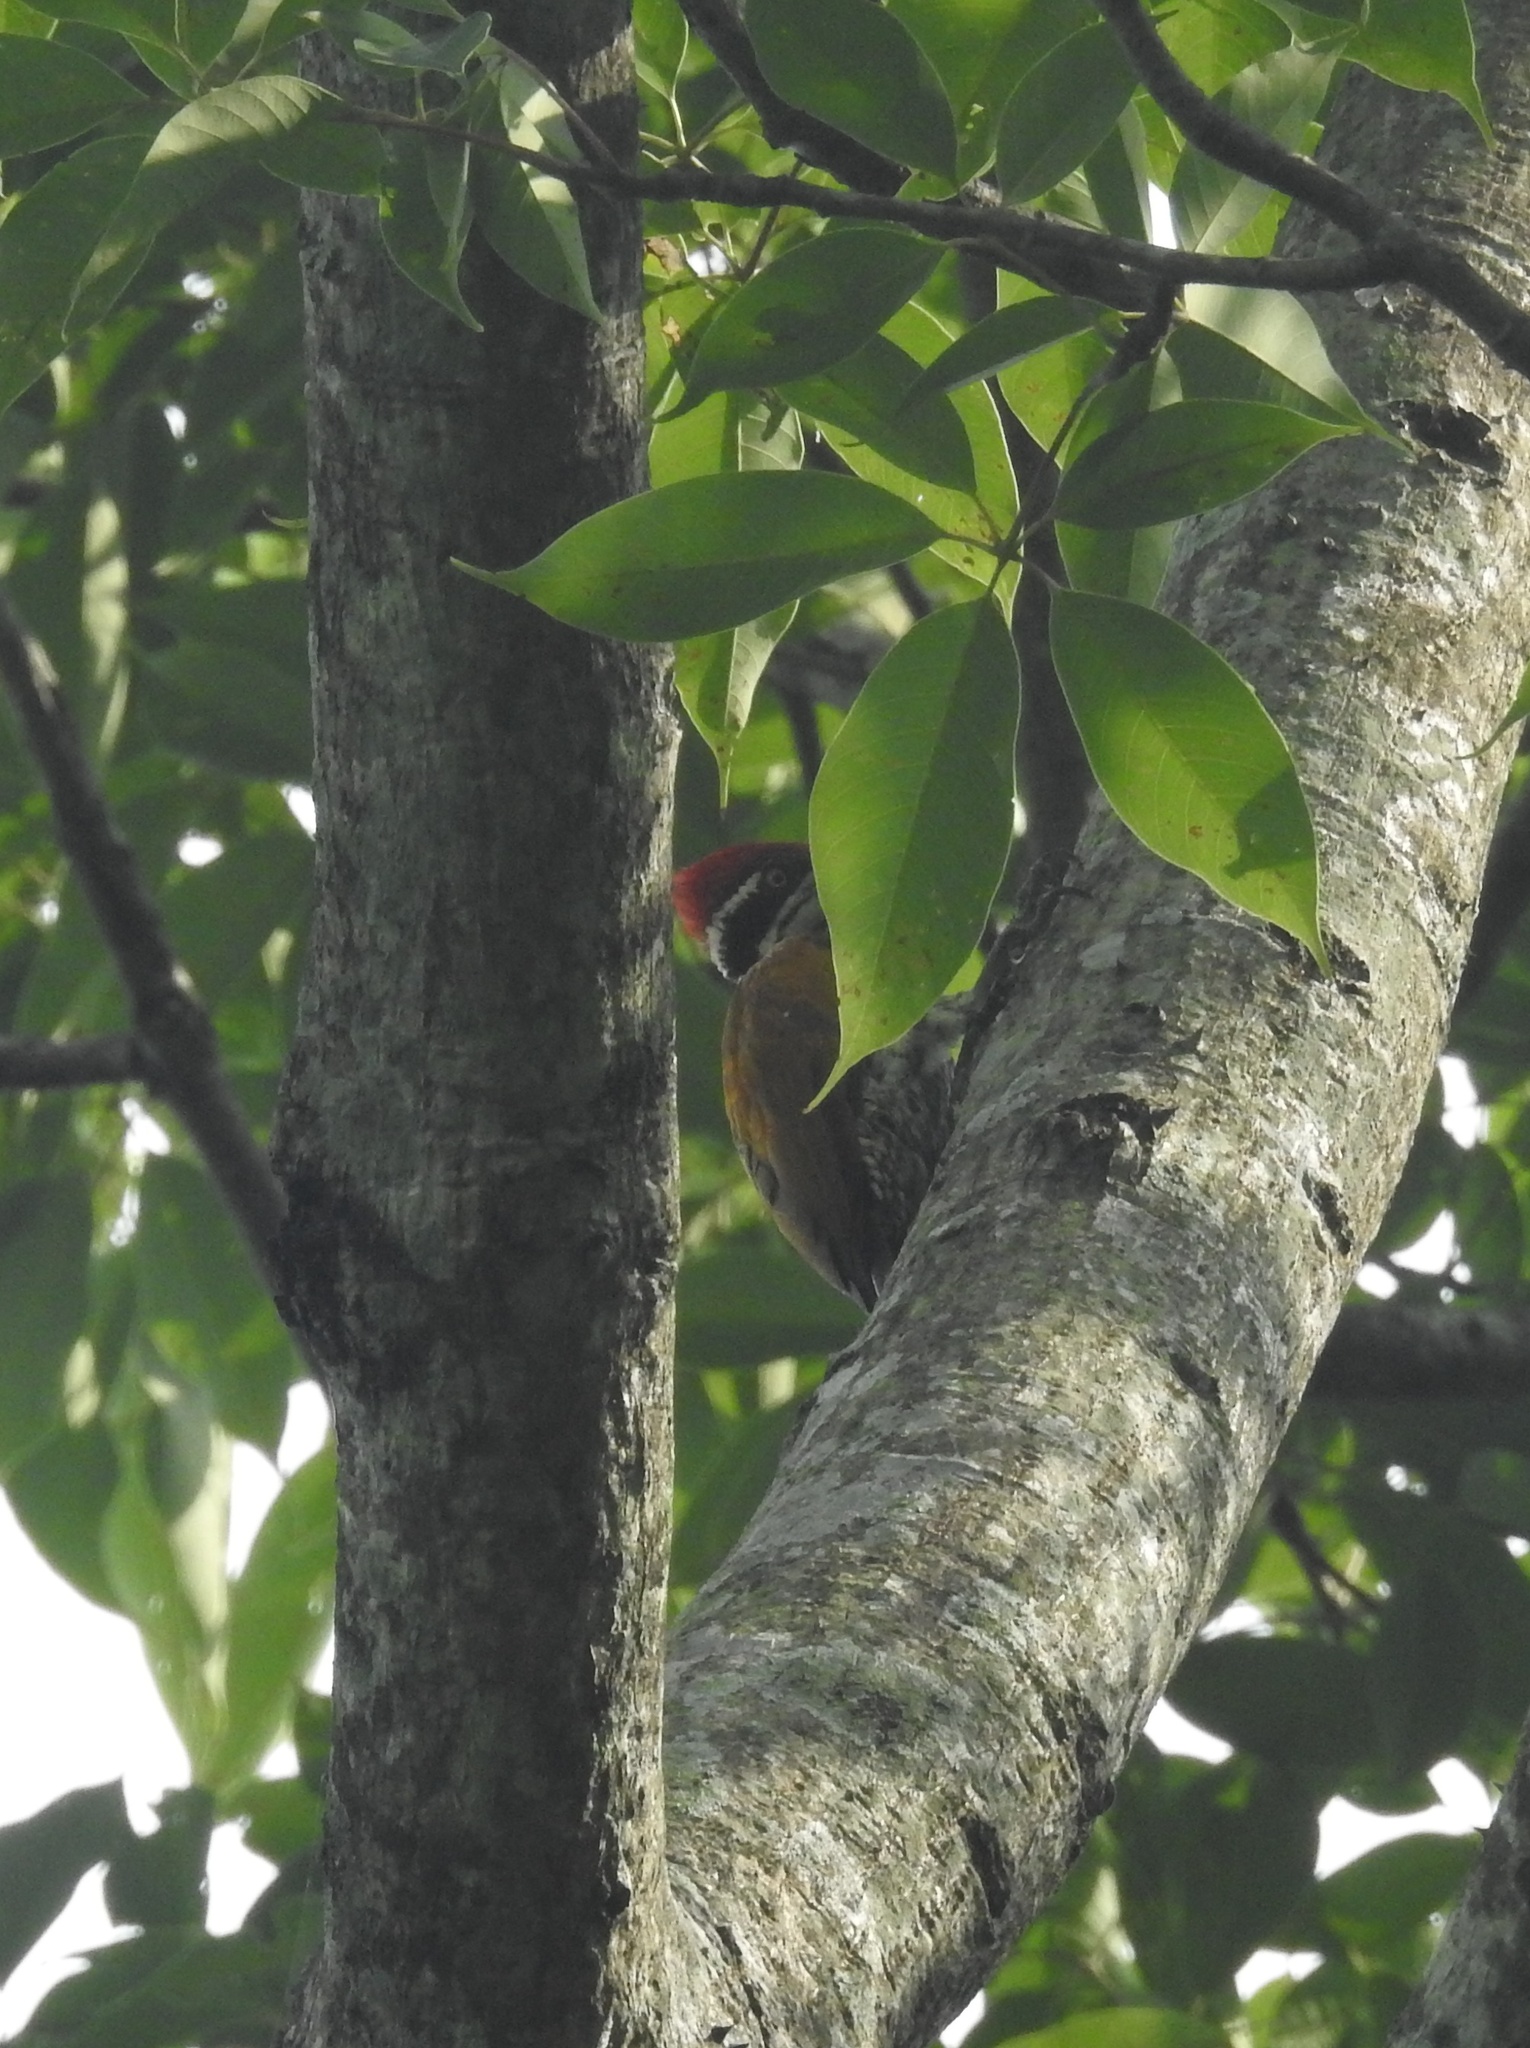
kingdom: Animalia
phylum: Chordata
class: Aves
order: Piciformes
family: Picidae
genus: Chrysocolaptes
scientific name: Chrysocolaptes guttacristatus
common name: Greater flameback
